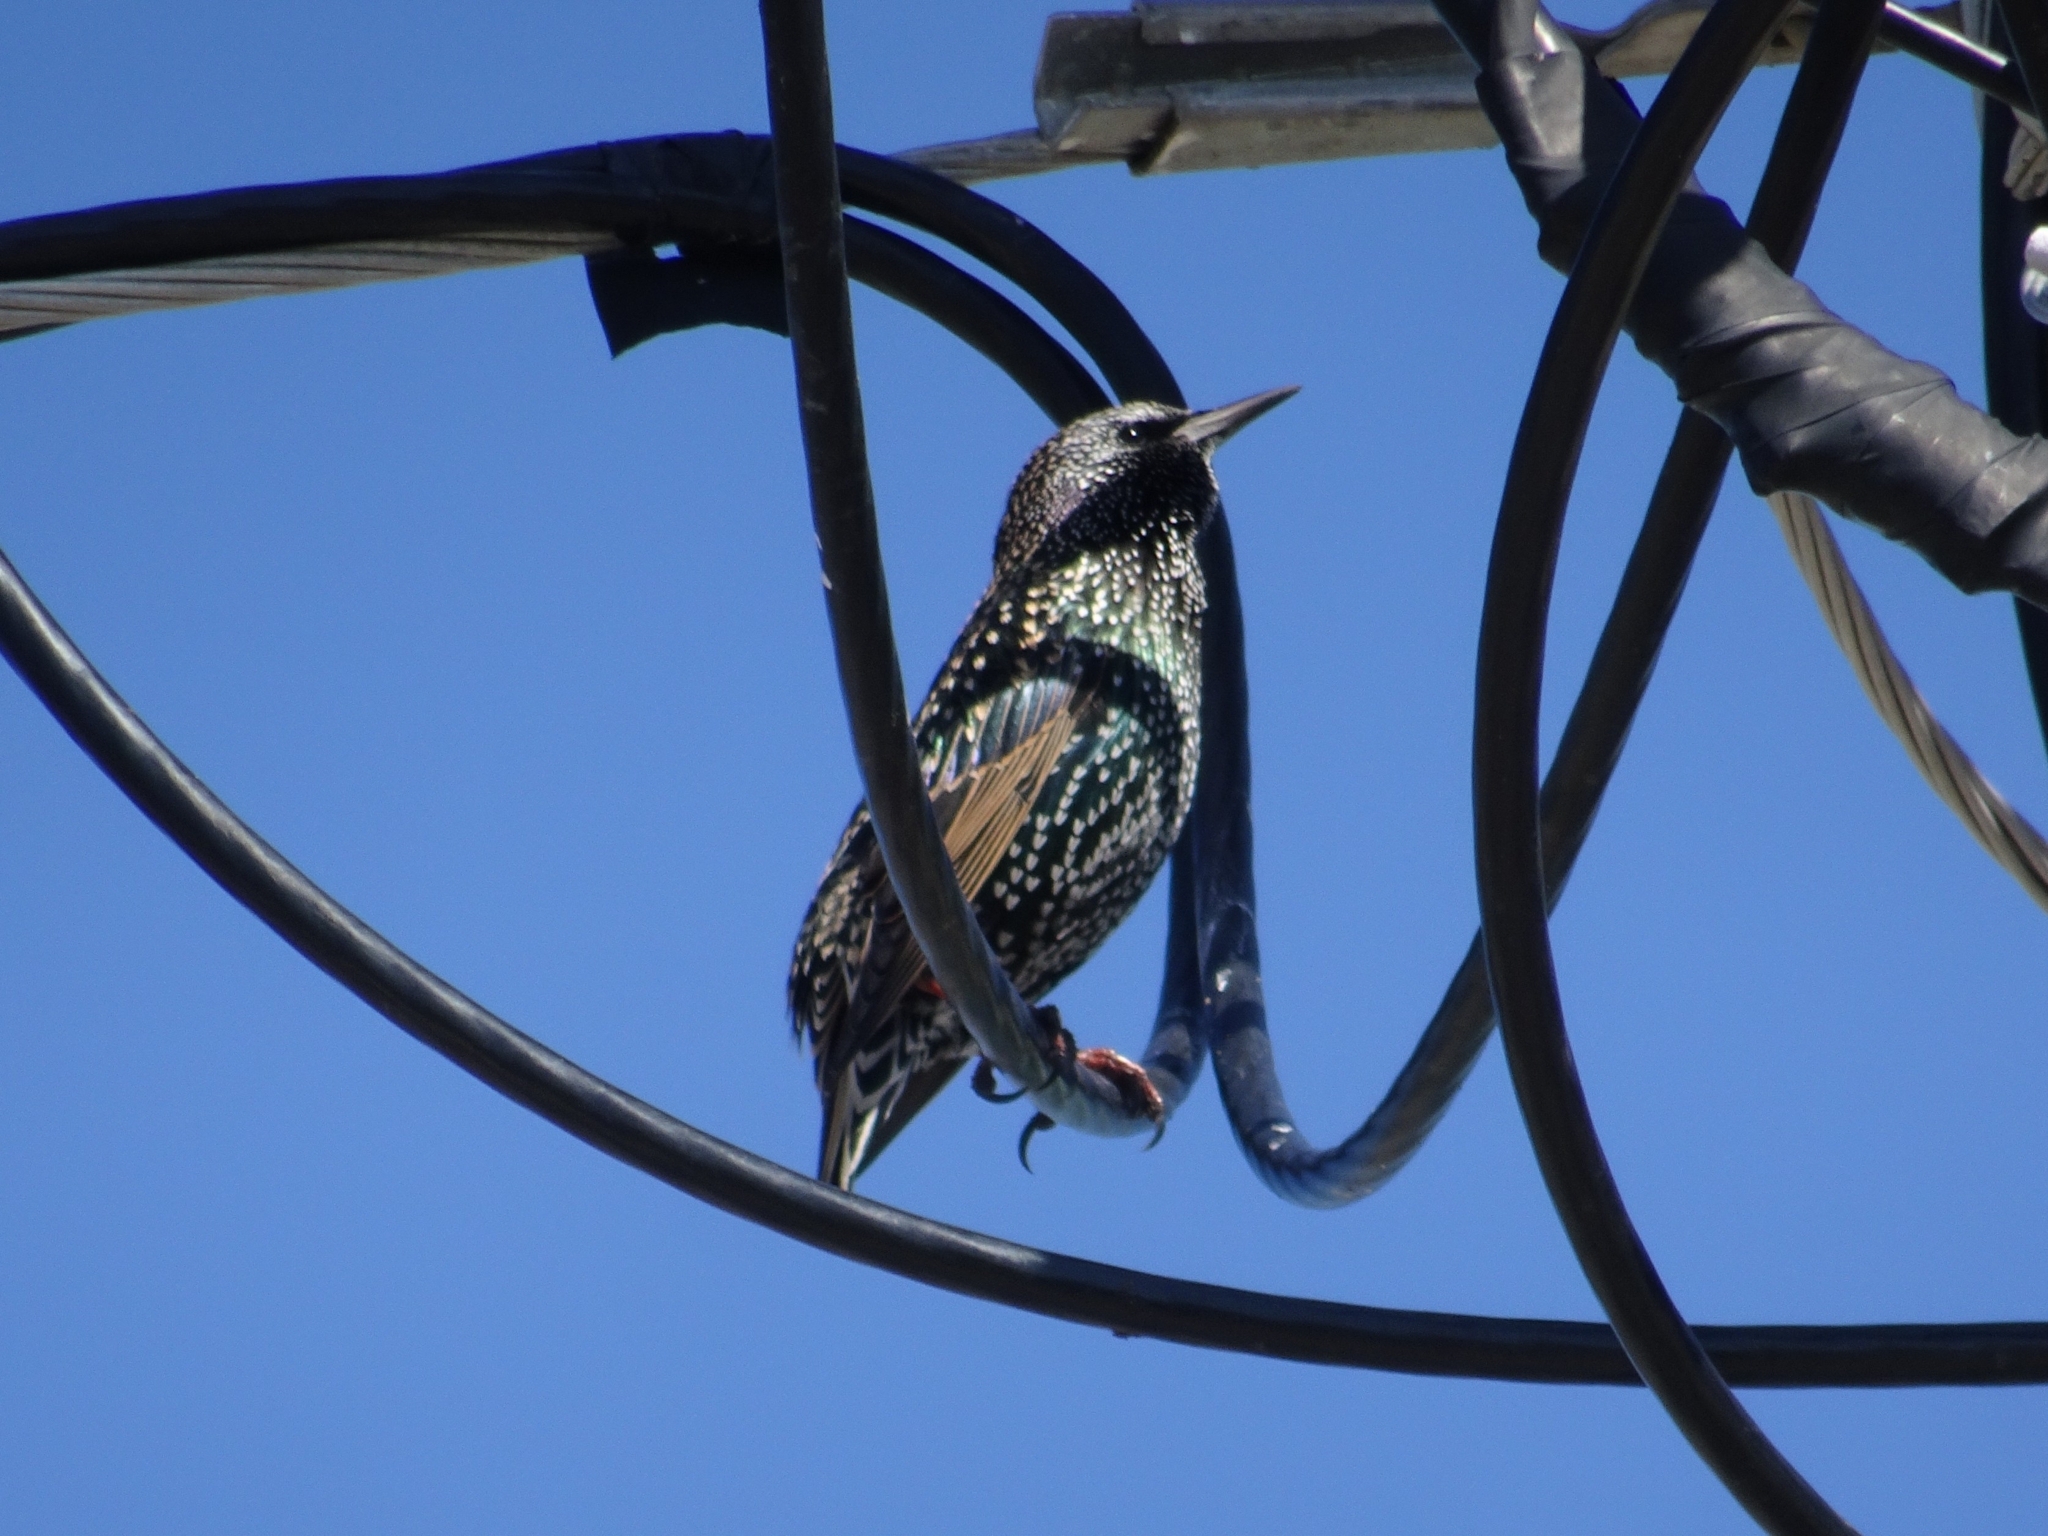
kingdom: Animalia
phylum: Chordata
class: Aves
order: Passeriformes
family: Sturnidae
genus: Sturnus
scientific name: Sturnus vulgaris
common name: Common starling
